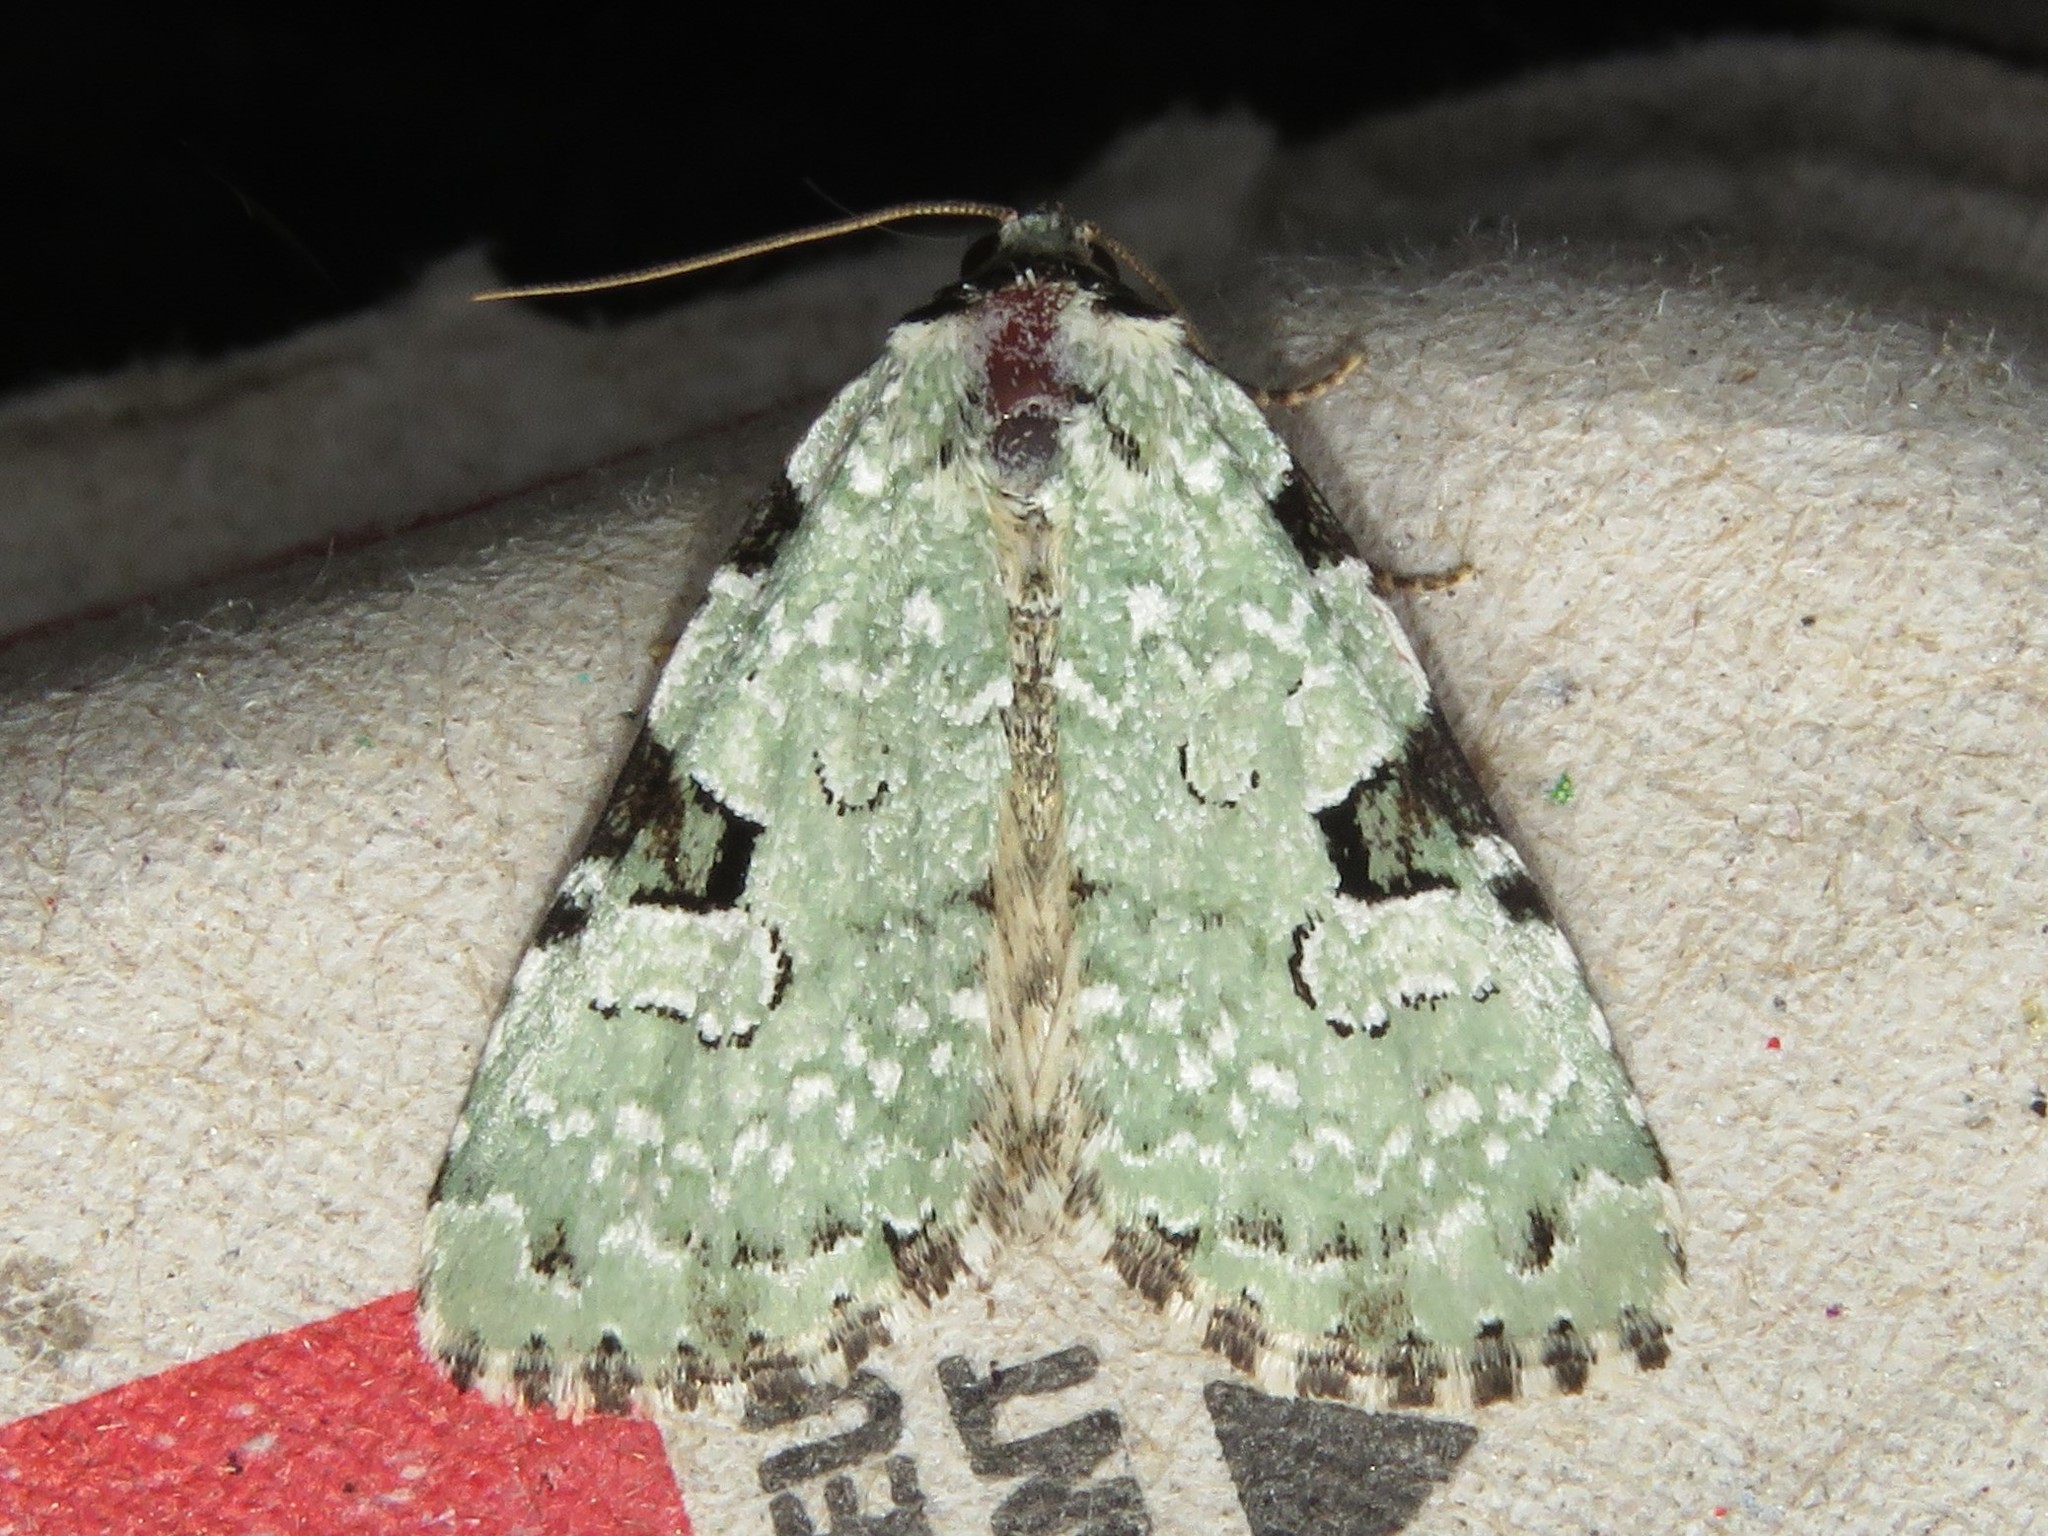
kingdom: Animalia
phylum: Arthropoda
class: Insecta
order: Lepidoptera
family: Noctuidae
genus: Leuconycta
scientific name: Leuconycta diphteroides
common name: Green leuconycta moth
